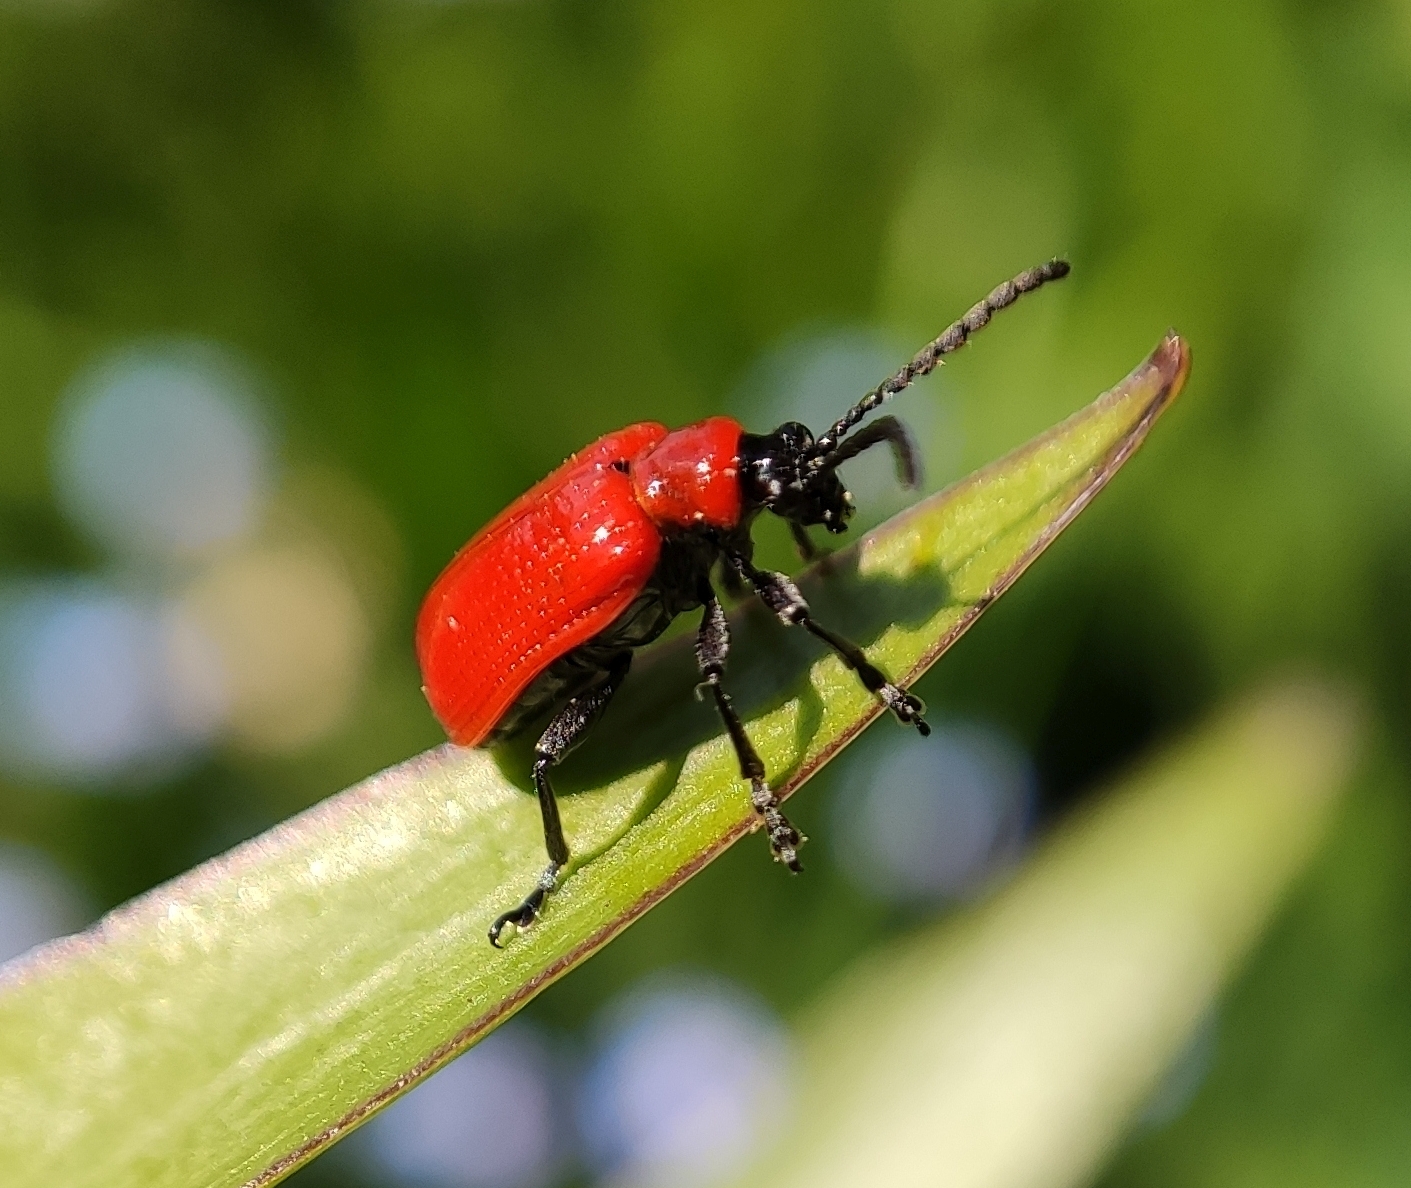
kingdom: Animalia
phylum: Arthropoda
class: Insecta
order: Coleoptera
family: Chrysomelidae
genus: Lilioceris
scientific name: Lilioceris lilii
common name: Lily beetle
